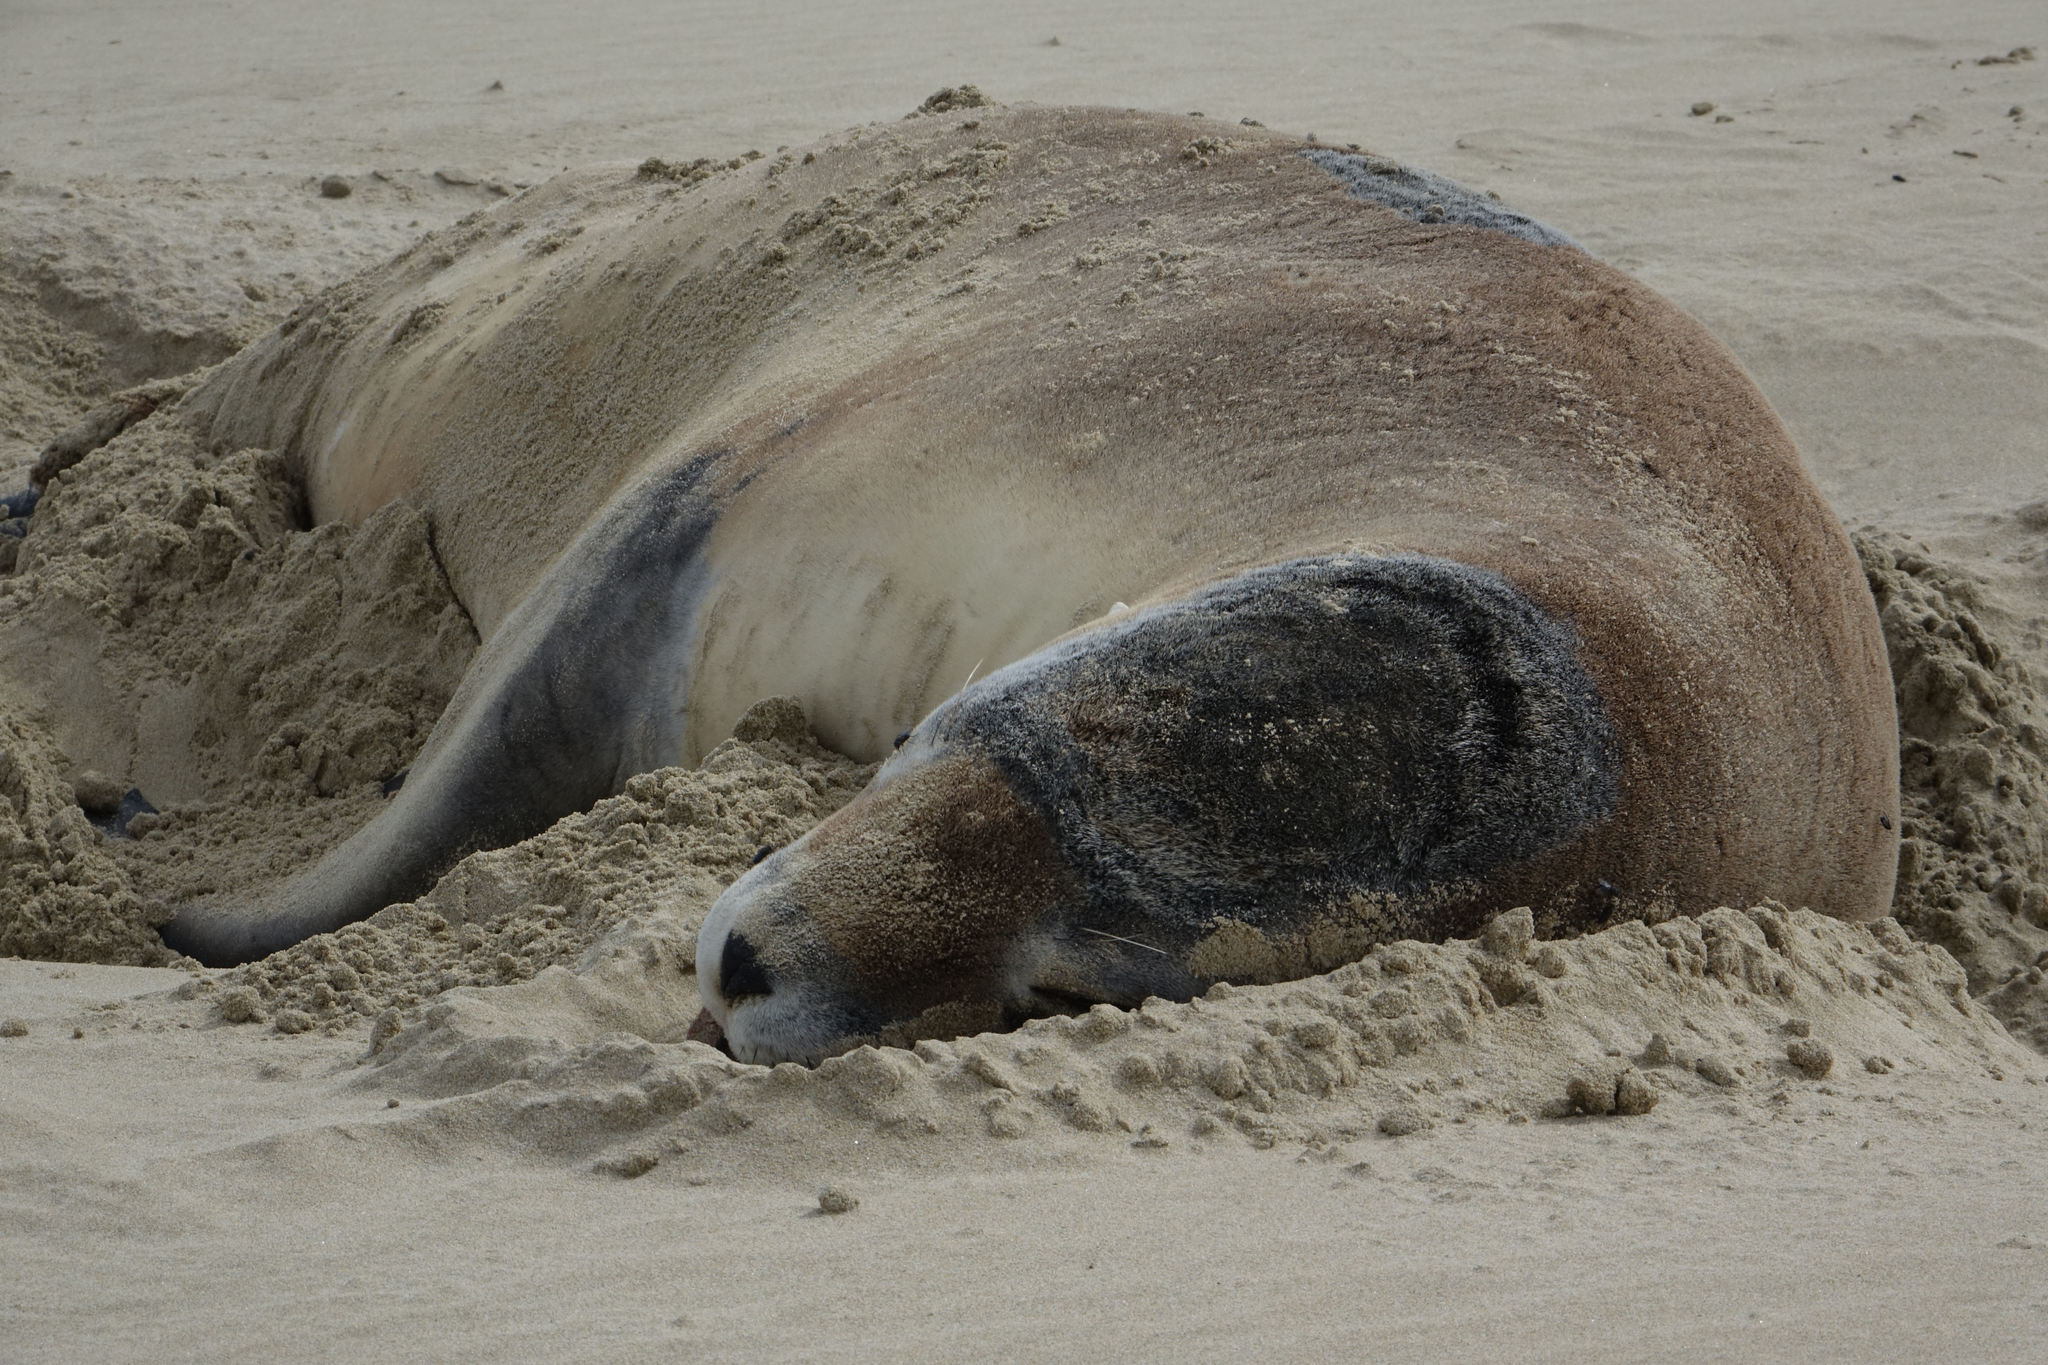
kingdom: Animalia
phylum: Chordata
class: Mammalia
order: Carnivora
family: Otariidae
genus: Phocarctos
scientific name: Phocarctos hookeri
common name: New zealand sea lion
